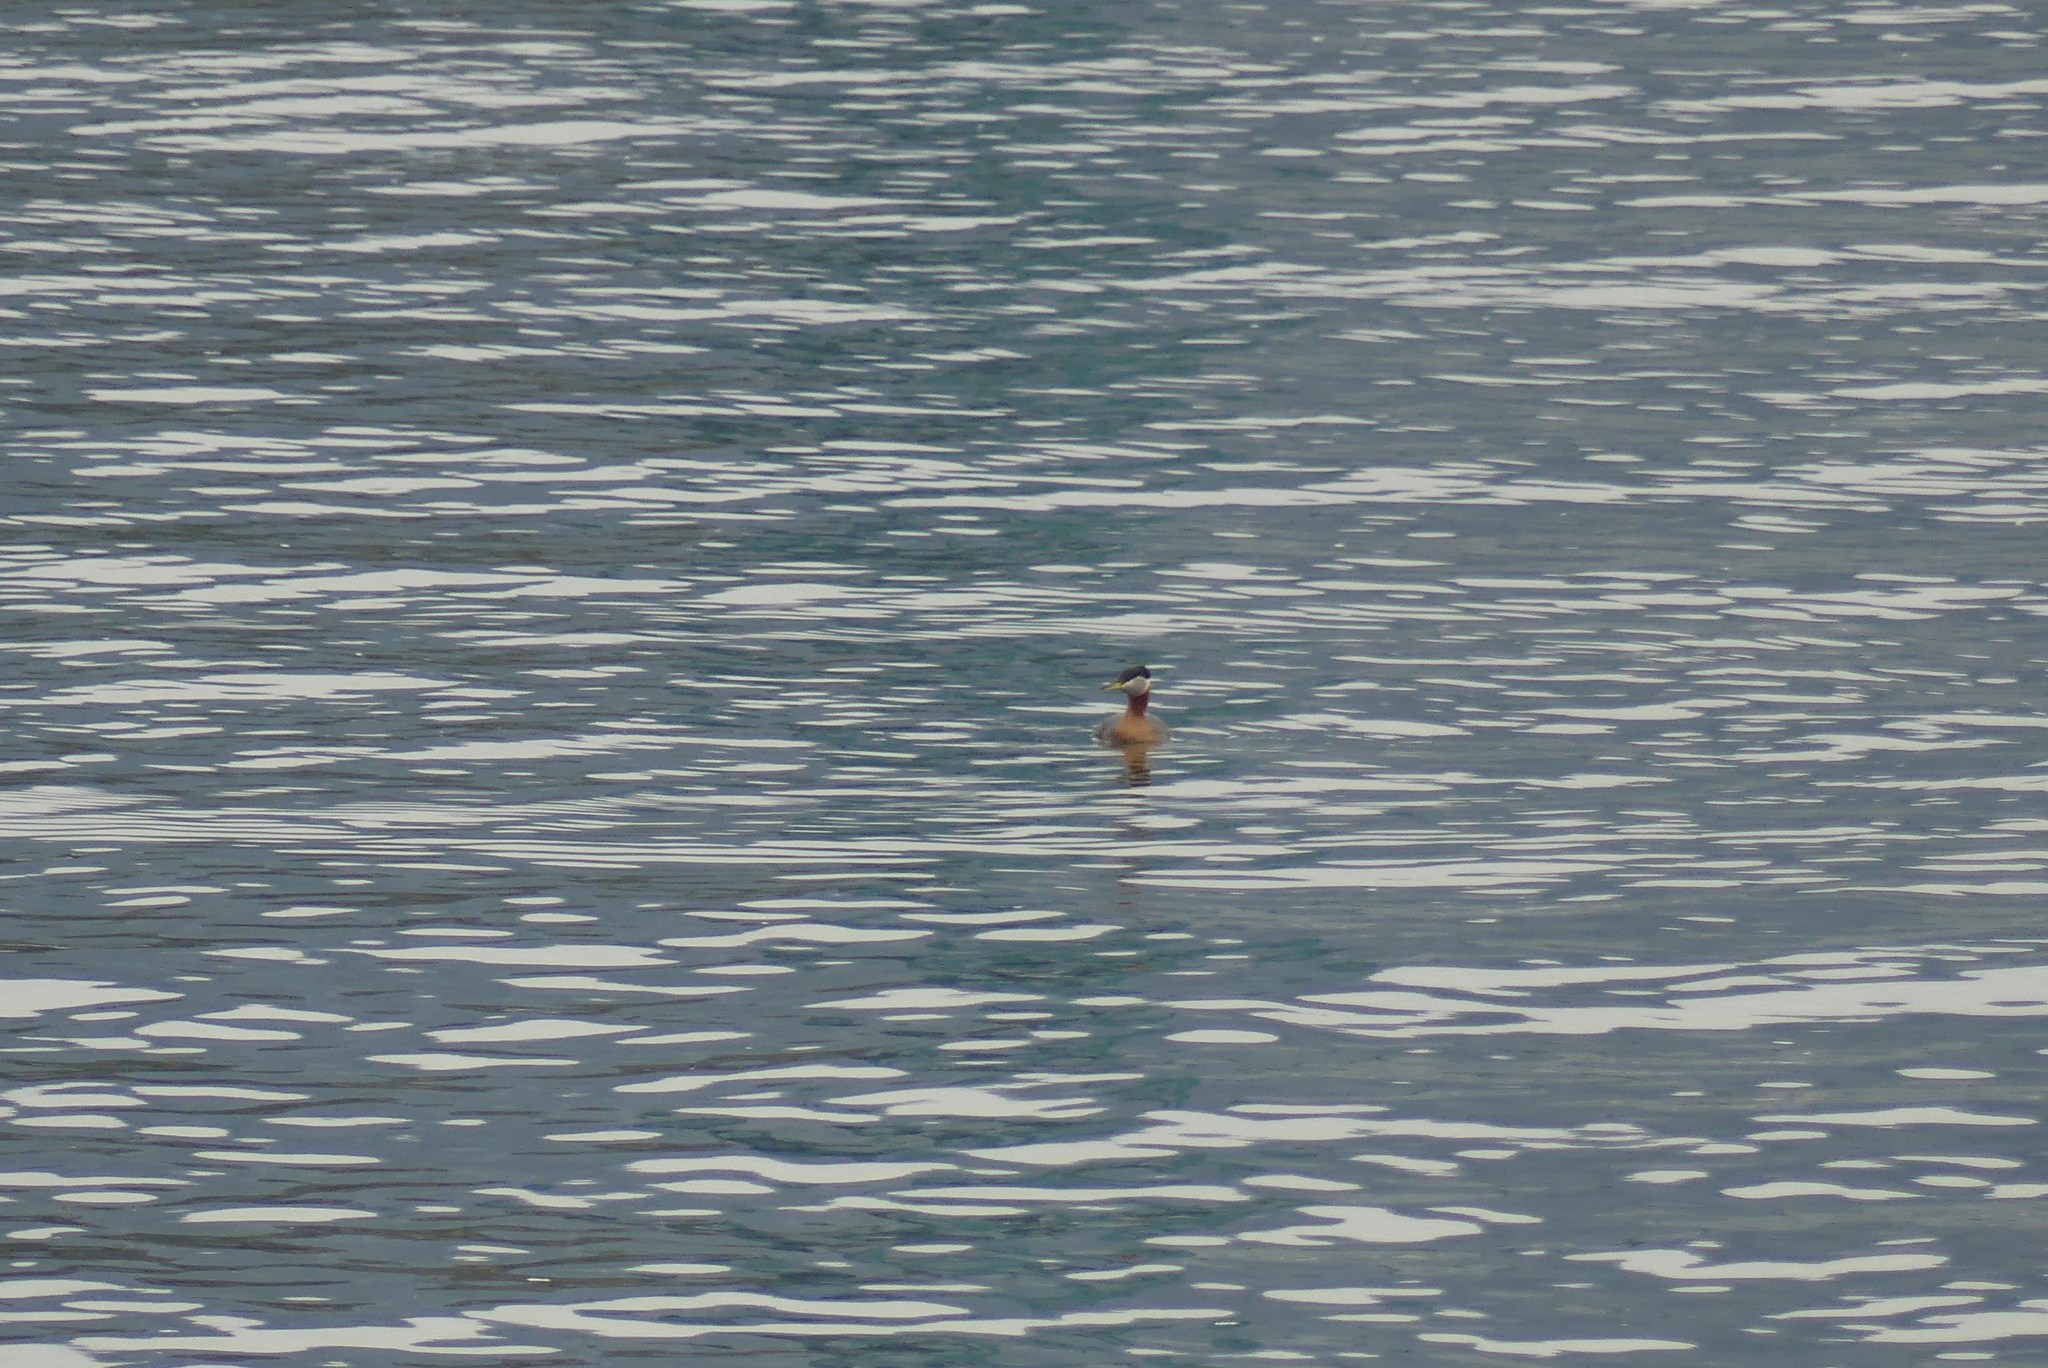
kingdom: Animalia
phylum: Chordata
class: Aves
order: Podicipediformes
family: Podicipedidae
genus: Podiceps
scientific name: Podiceps grisegena
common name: Red-necked grebe
